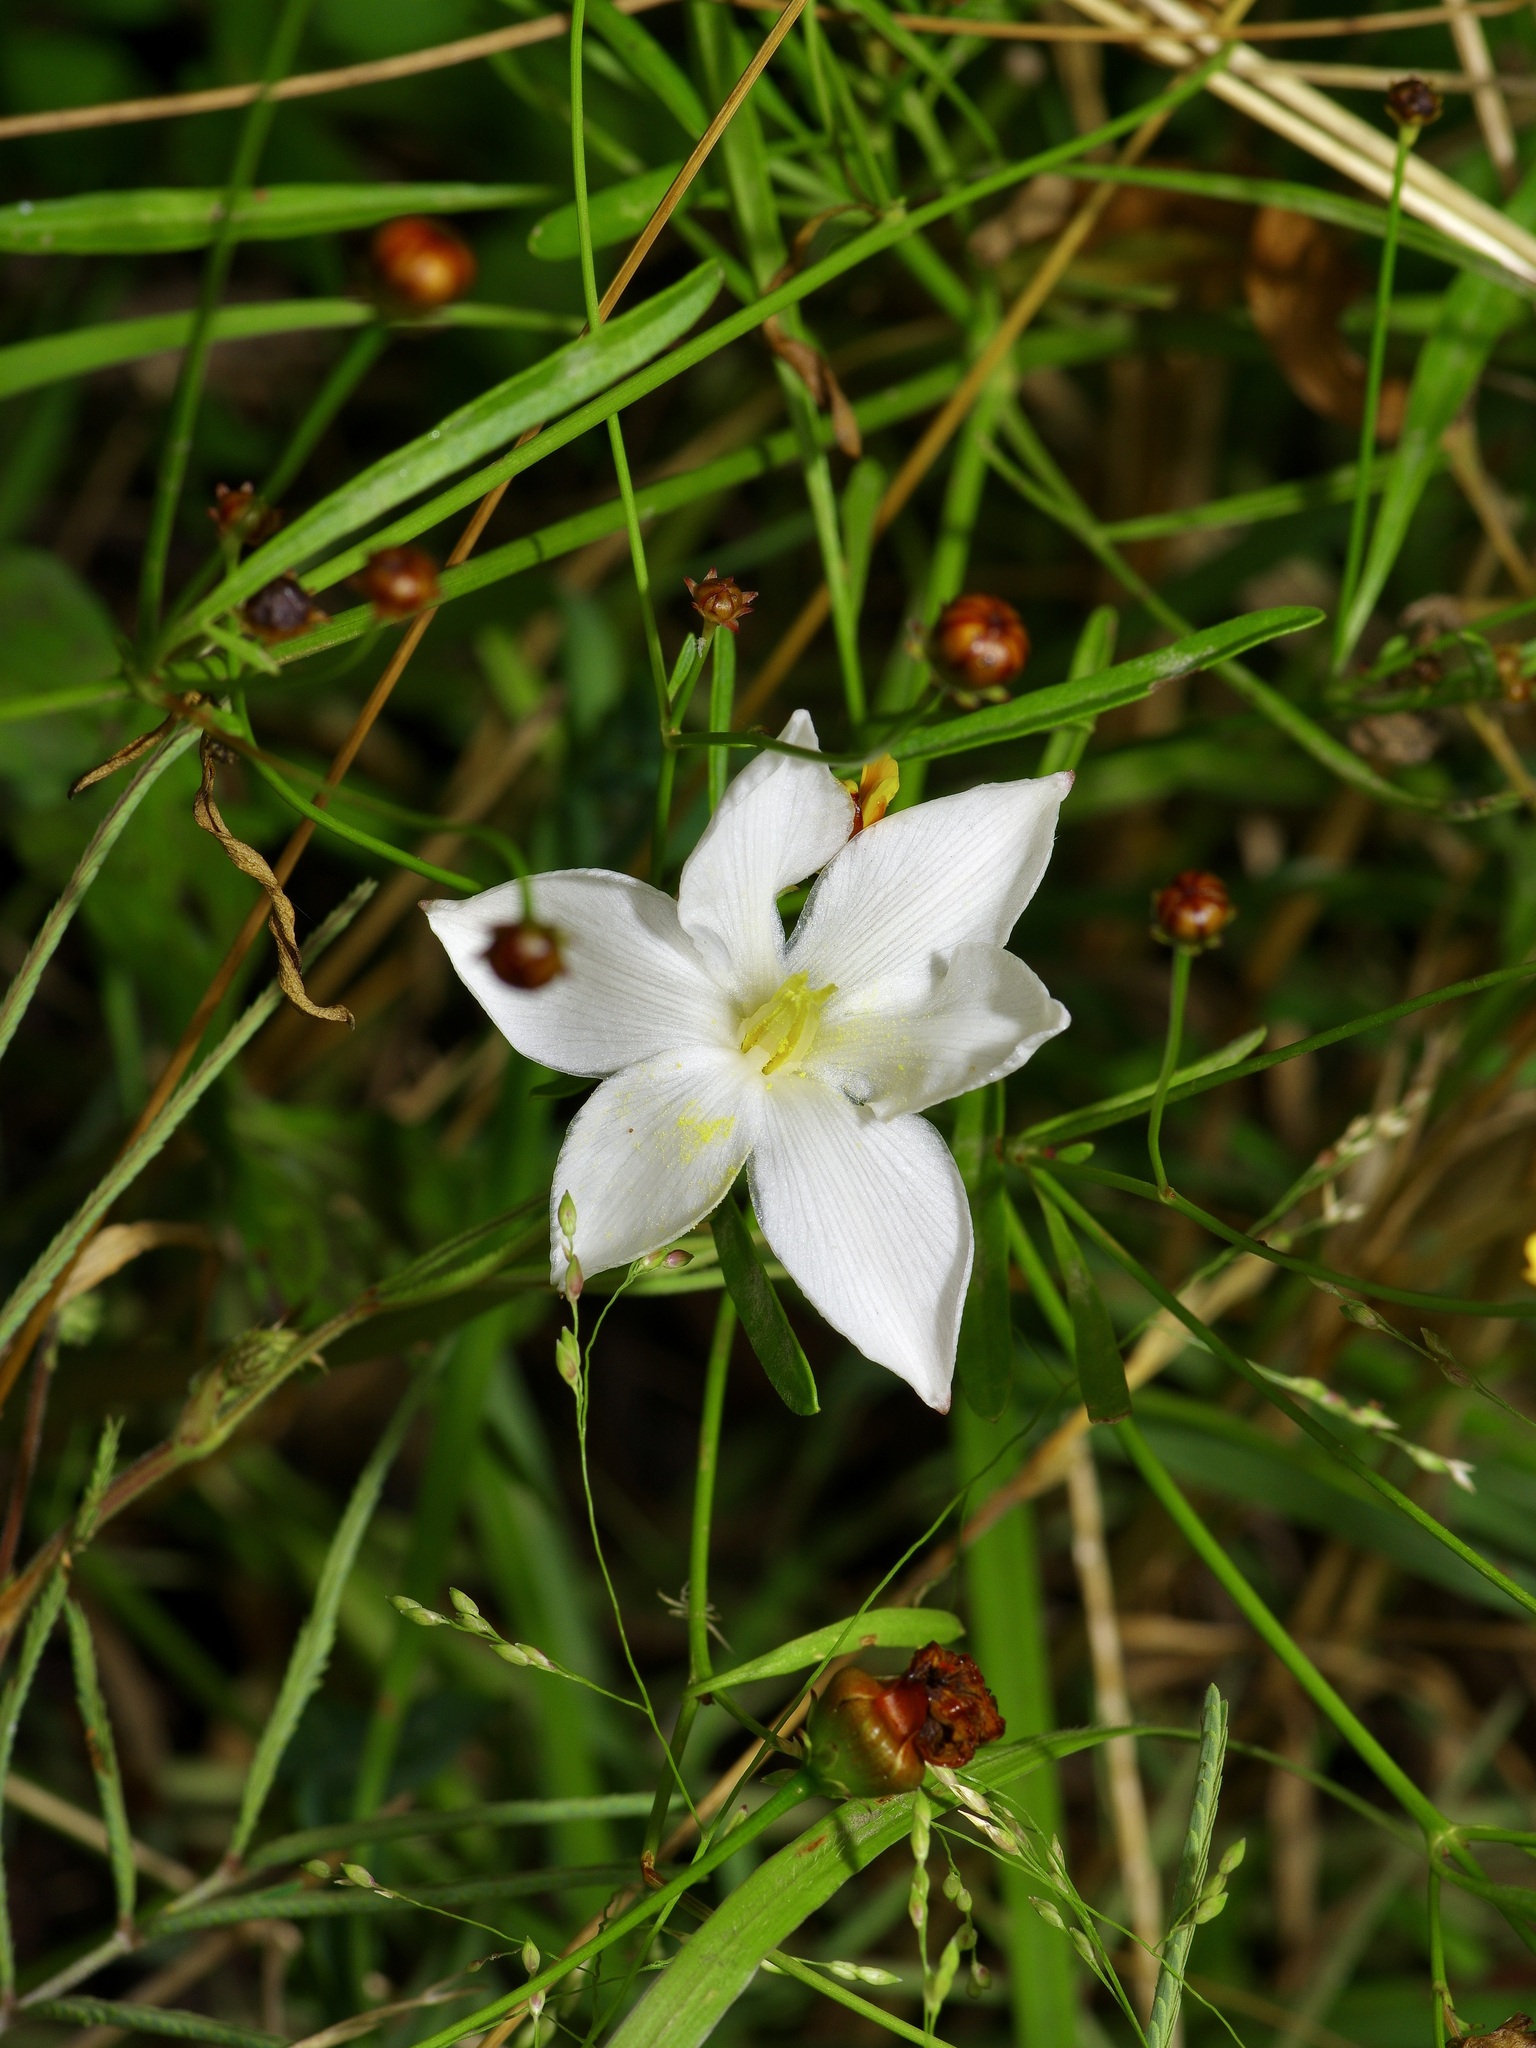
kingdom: Plantae
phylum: Tracheophyta
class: Liliopsida
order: Asparagales
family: Amaryllidaceae
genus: Zephyranthes
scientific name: Zephyranthes chlorosolen
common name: Evening rain-lily
